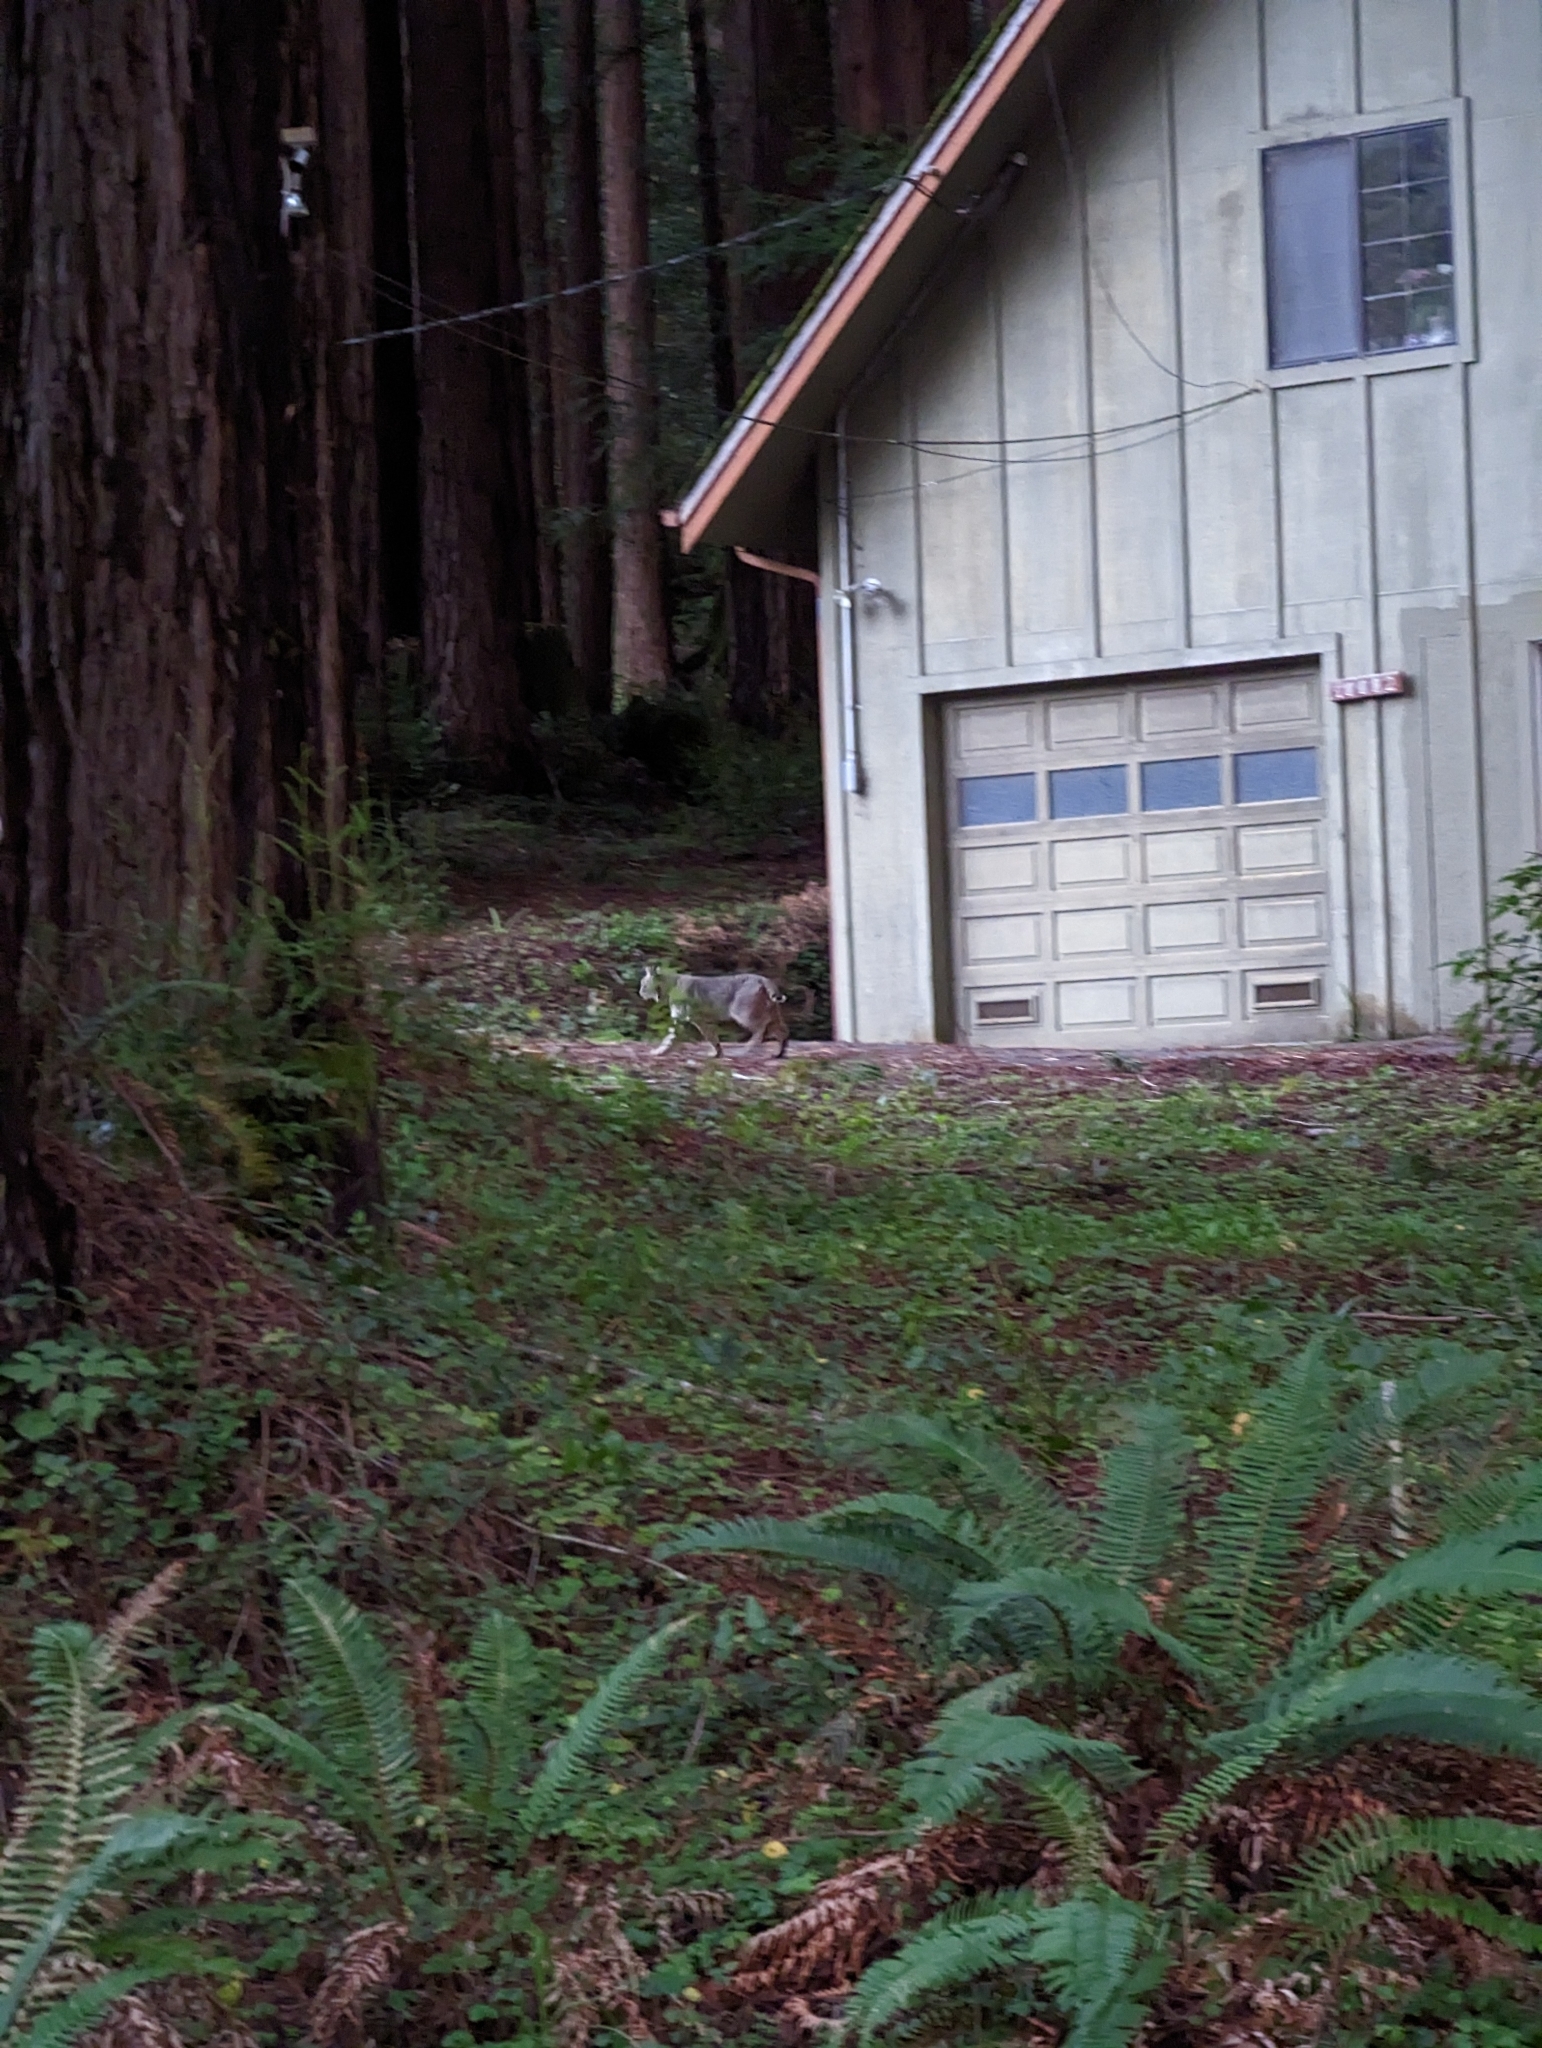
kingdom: Animalia
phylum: Chordata
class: Mammalia
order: Carnivora
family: Felidae
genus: Lynx
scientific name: Lynx rufus
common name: Bobcat
